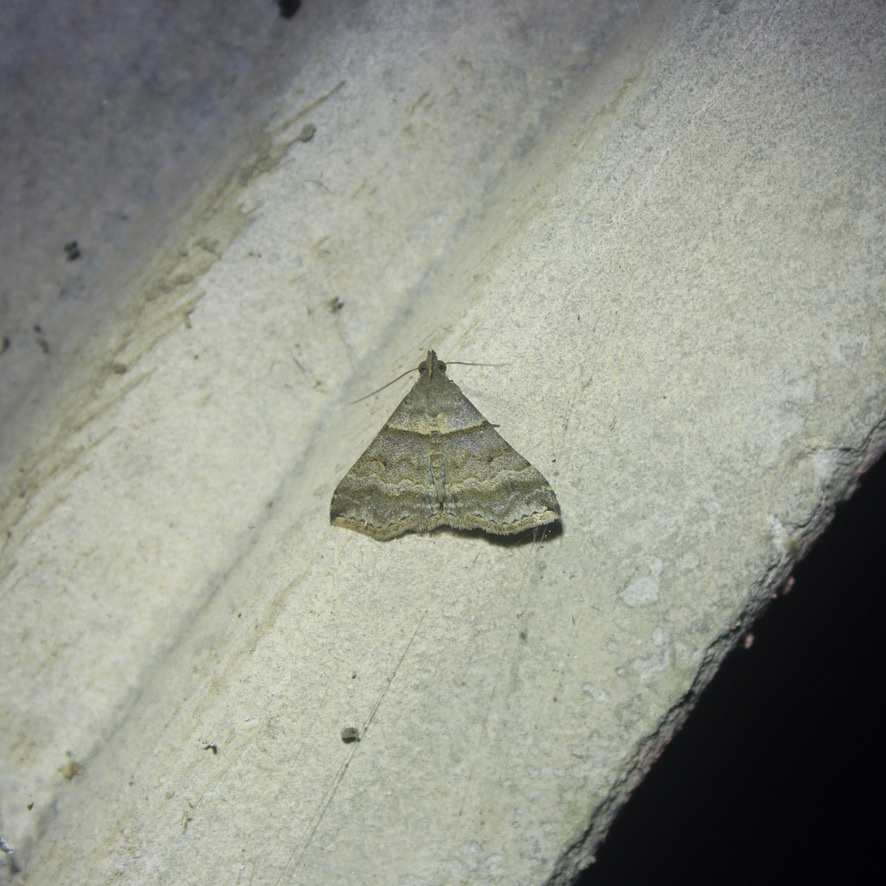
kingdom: Animalia
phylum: Arthropoda
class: Insecta
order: Lepidoptera
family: Erebidae
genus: Heterogramma
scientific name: Heterogramma circumflexalis
